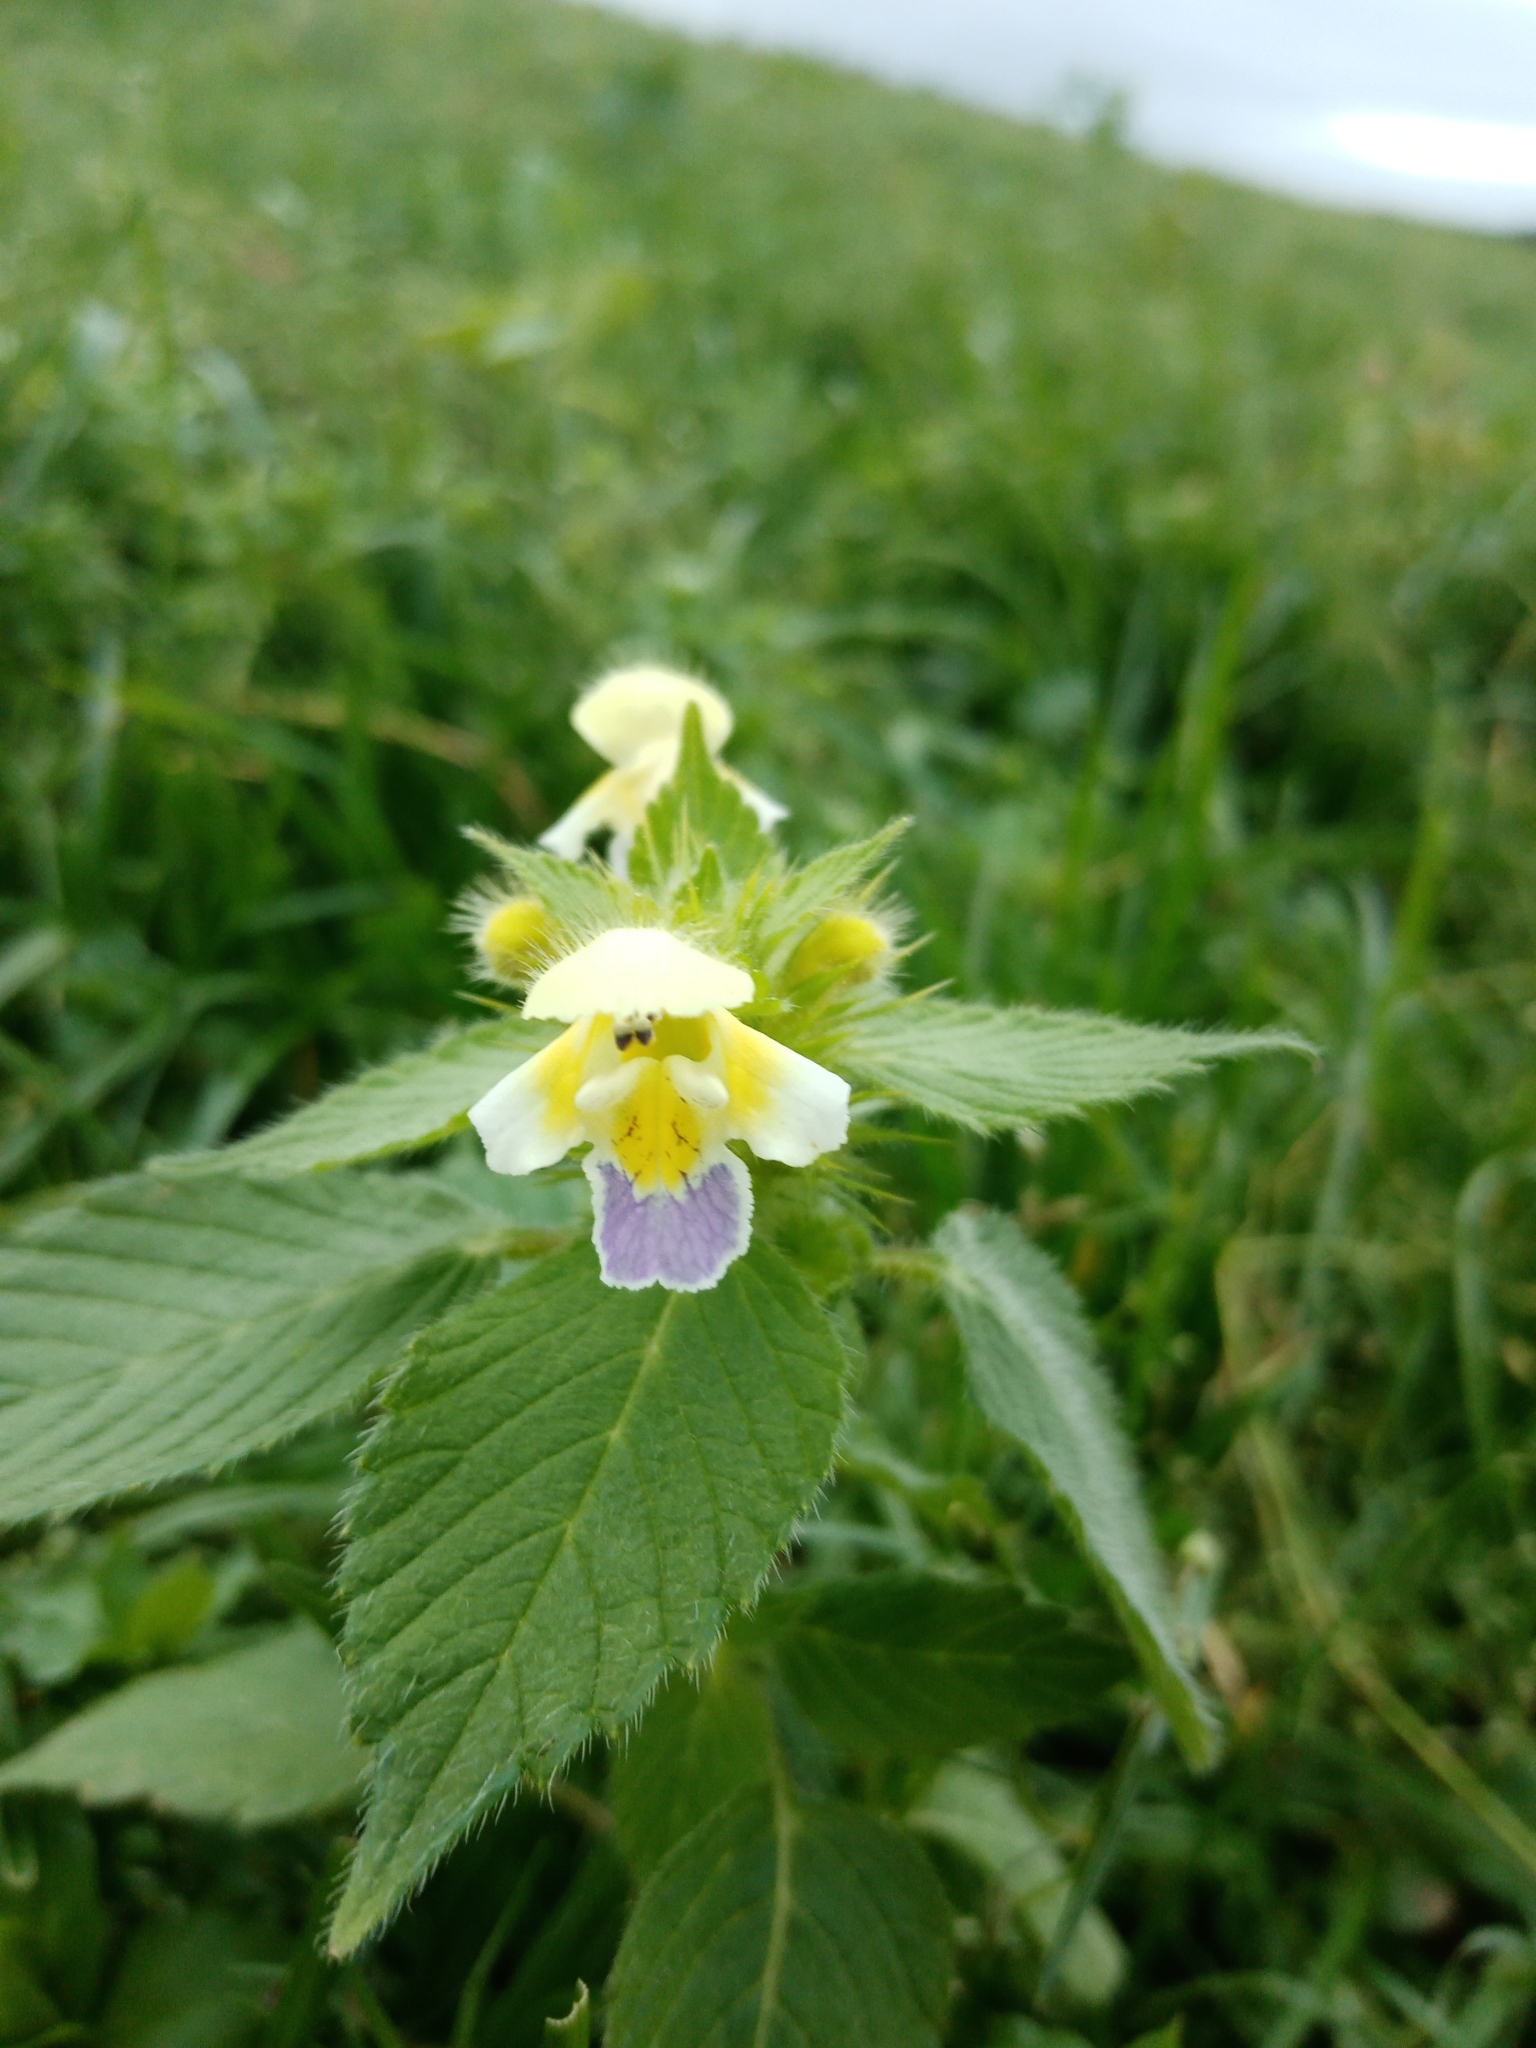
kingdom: Plantae
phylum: Tracheophyta
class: Magnoliopsida
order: Lamiales
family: Lamiaceae
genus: Galeopsis
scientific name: Galeopsis speciosa
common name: Large-flowered hemp-nettle
